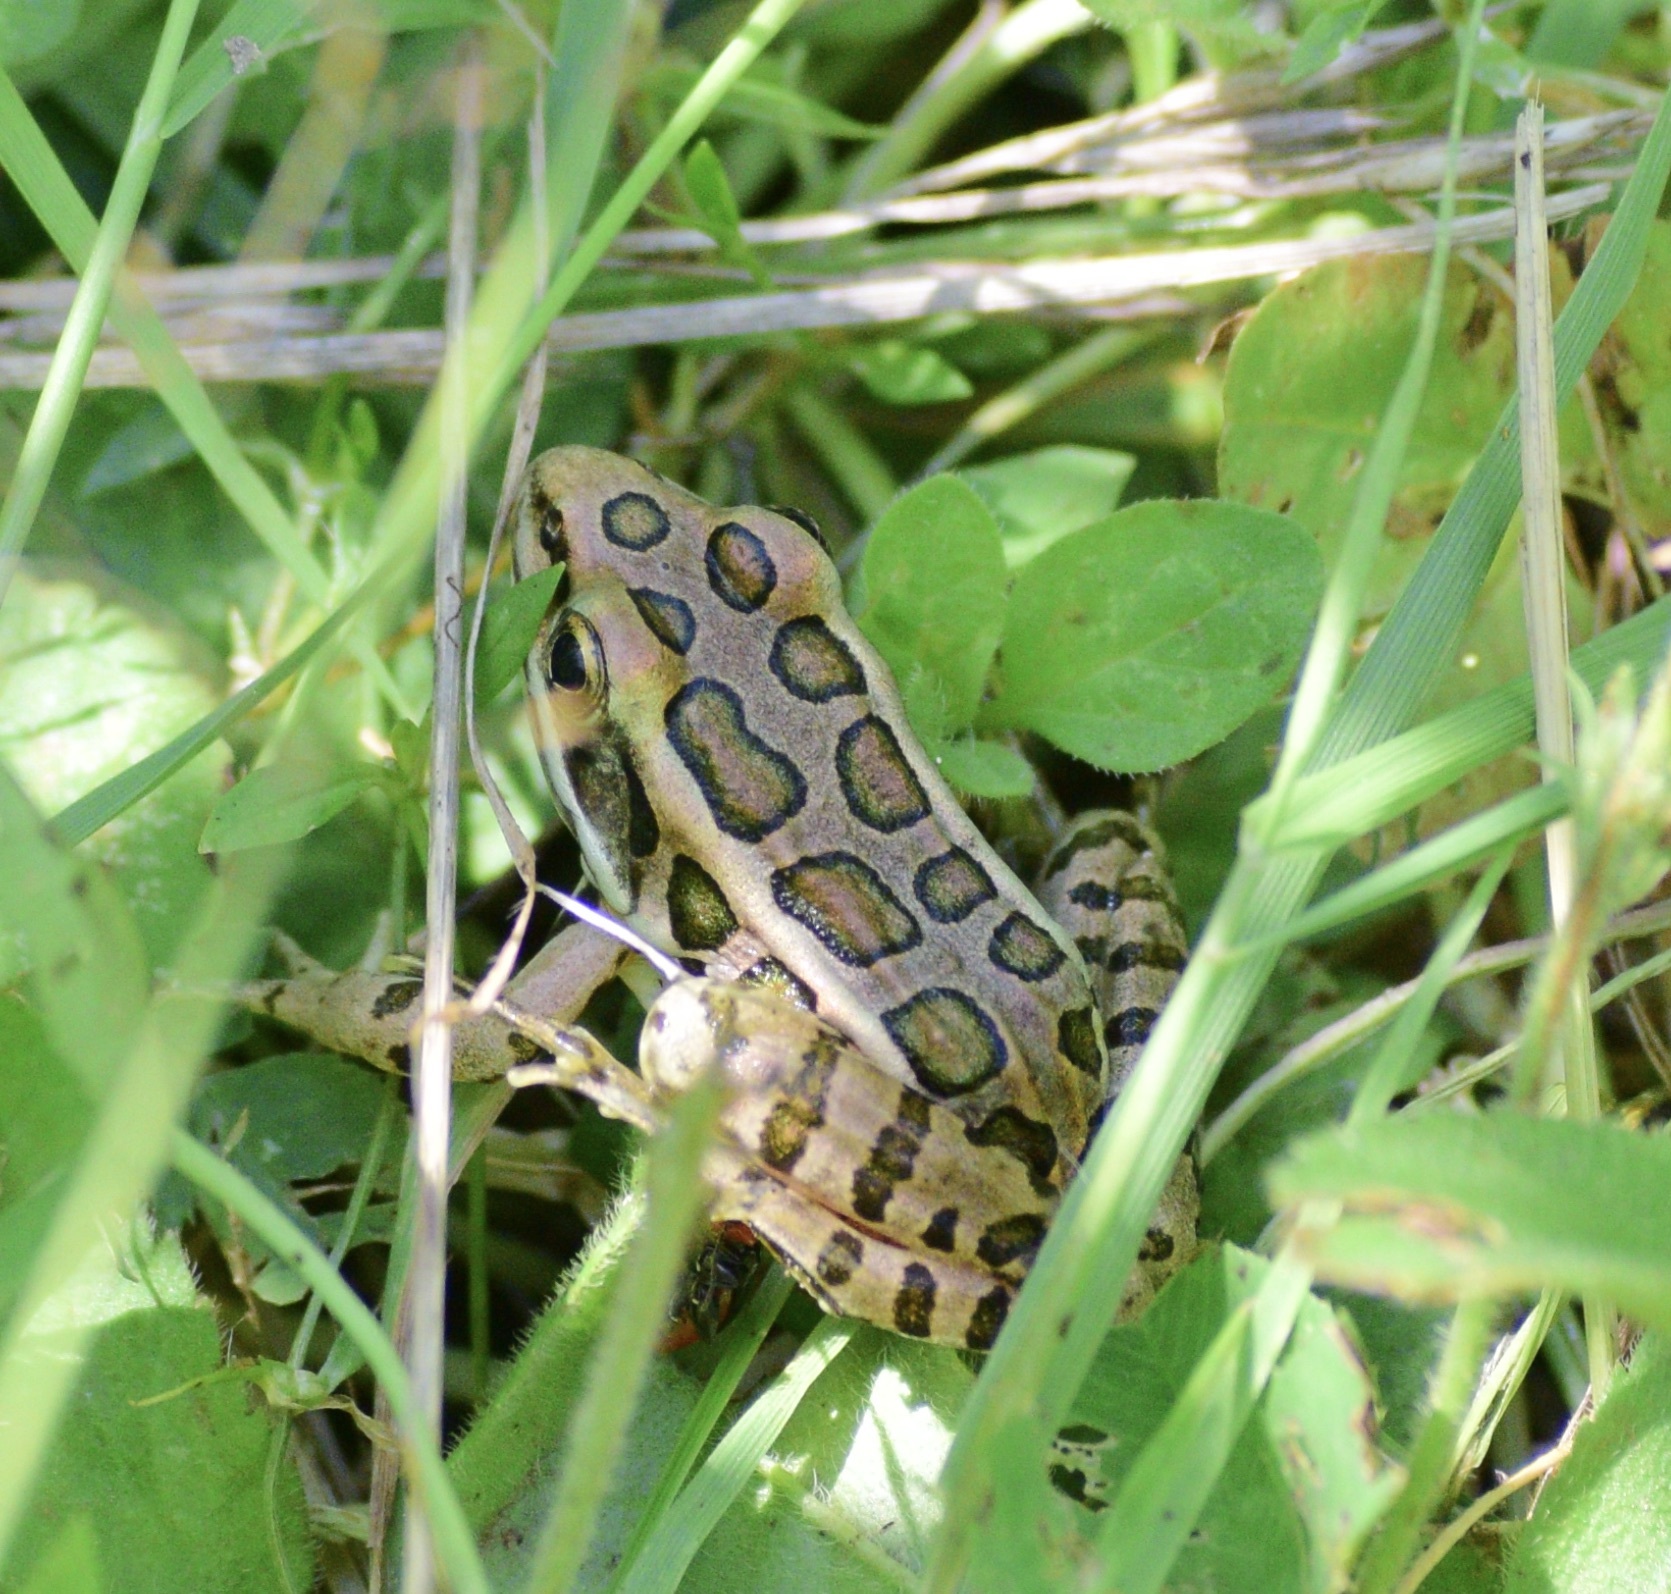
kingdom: Animalia
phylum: Chordata
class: Amphibia
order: Anura
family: Ranidae
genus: Lithobates
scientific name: Lithobates palustris
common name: Pickerel frog
